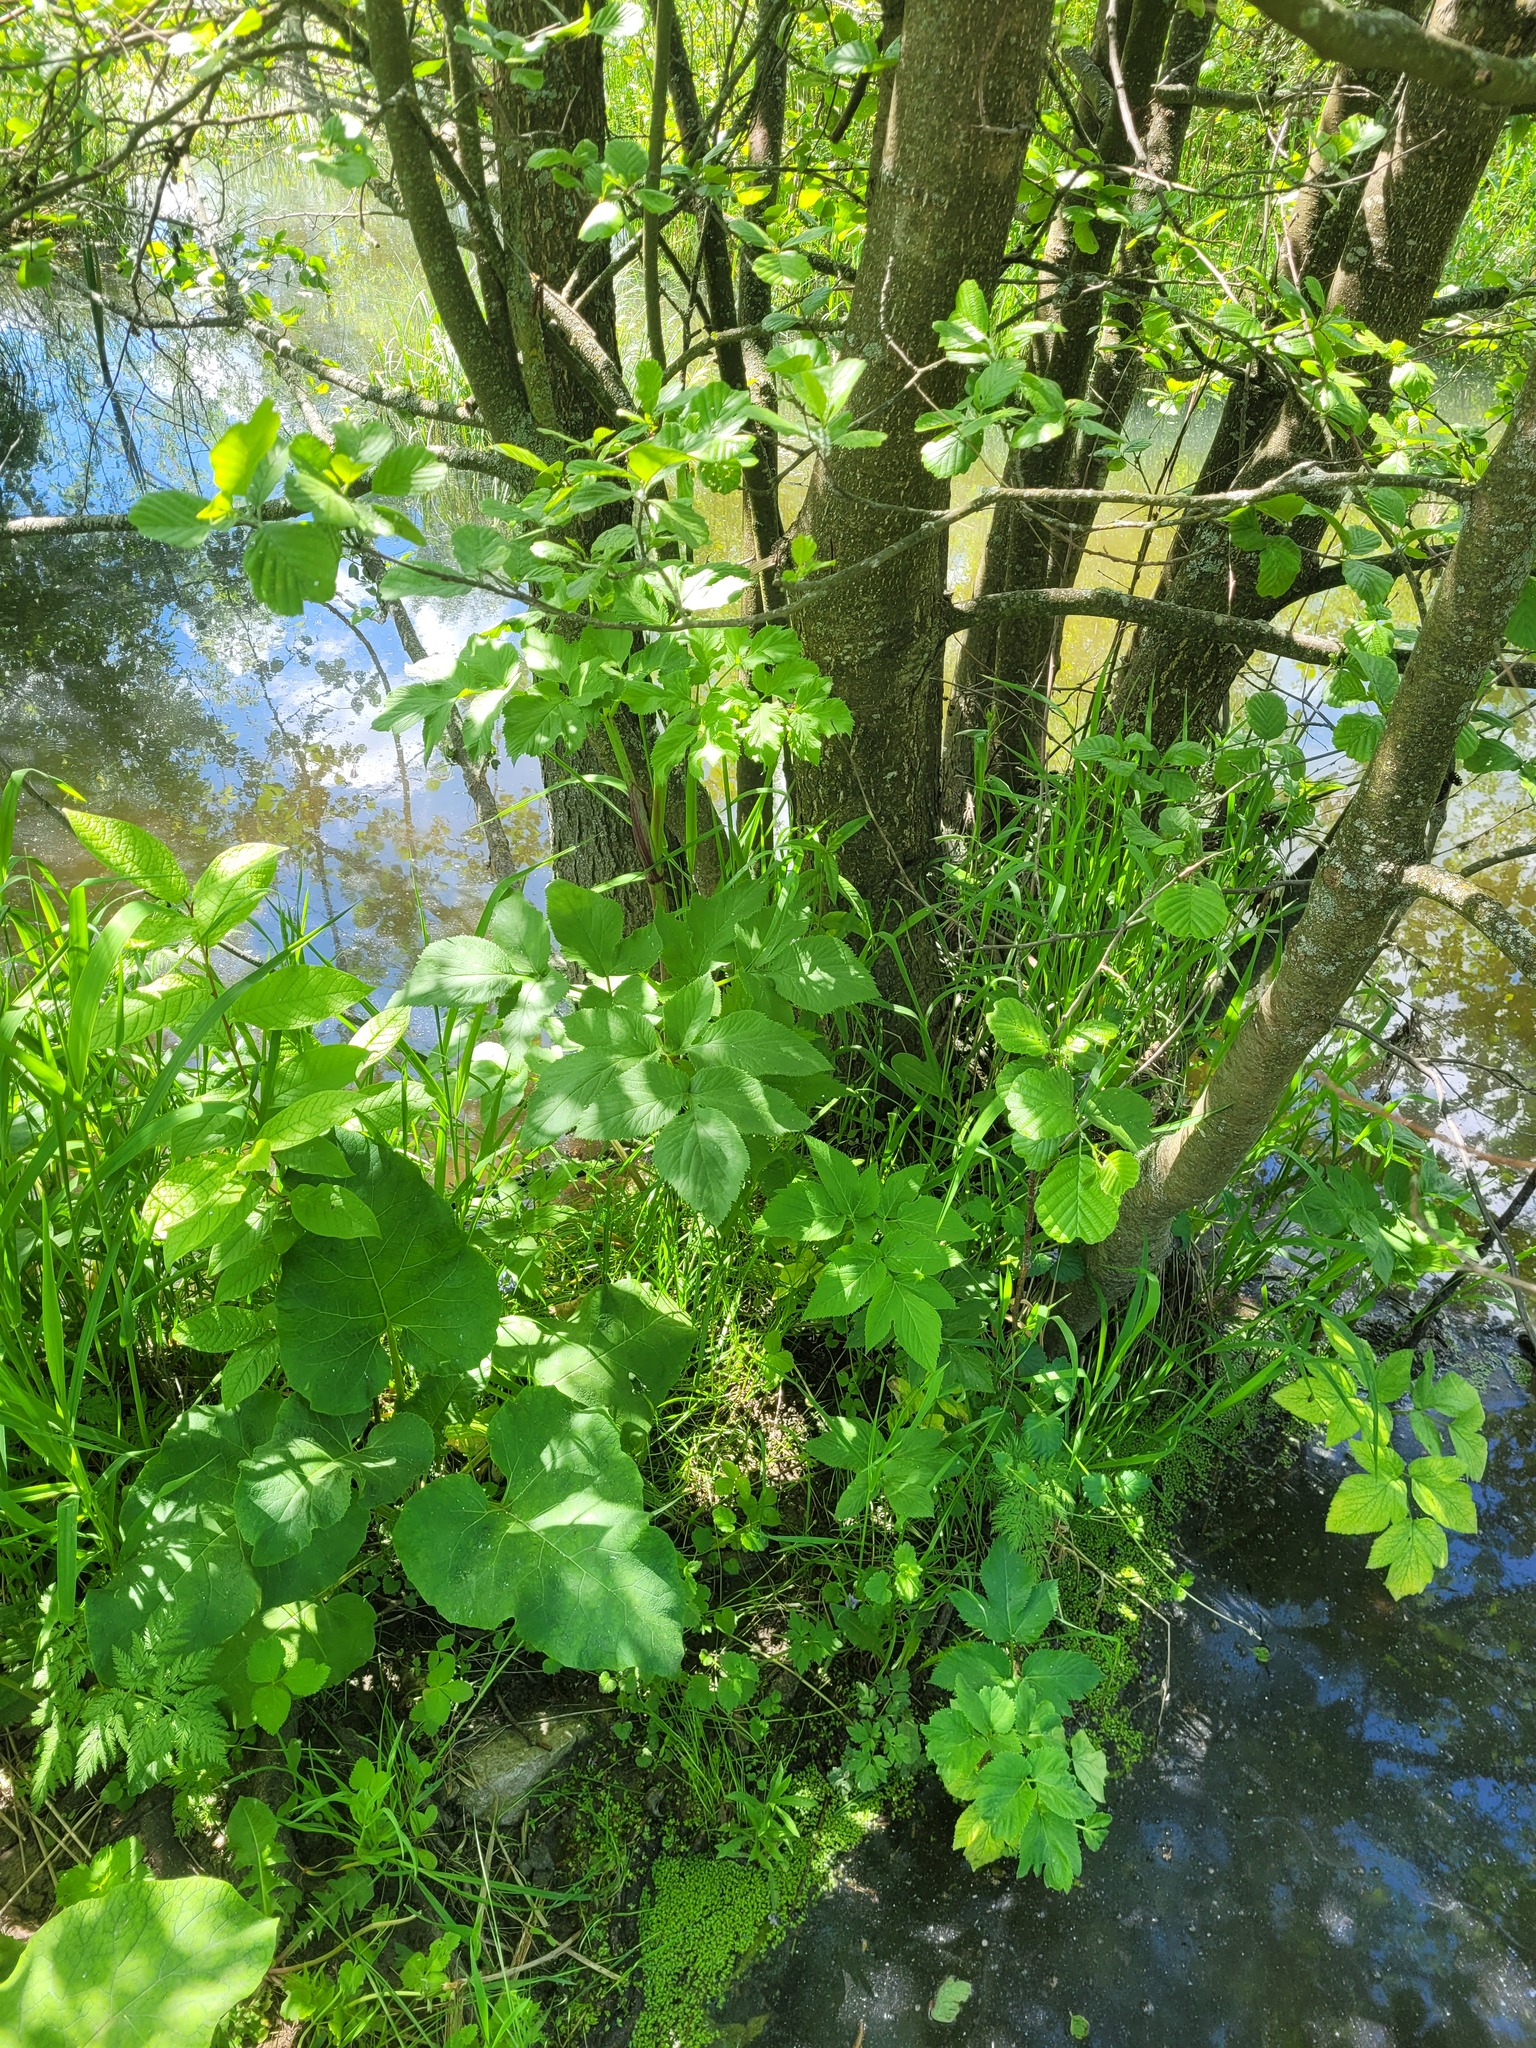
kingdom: Plantae
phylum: Tracheophyta
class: Magnoliopsida
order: Apiales
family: Apiaceae
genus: Angelica
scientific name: Angelica archangelica
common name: Garden angelica
